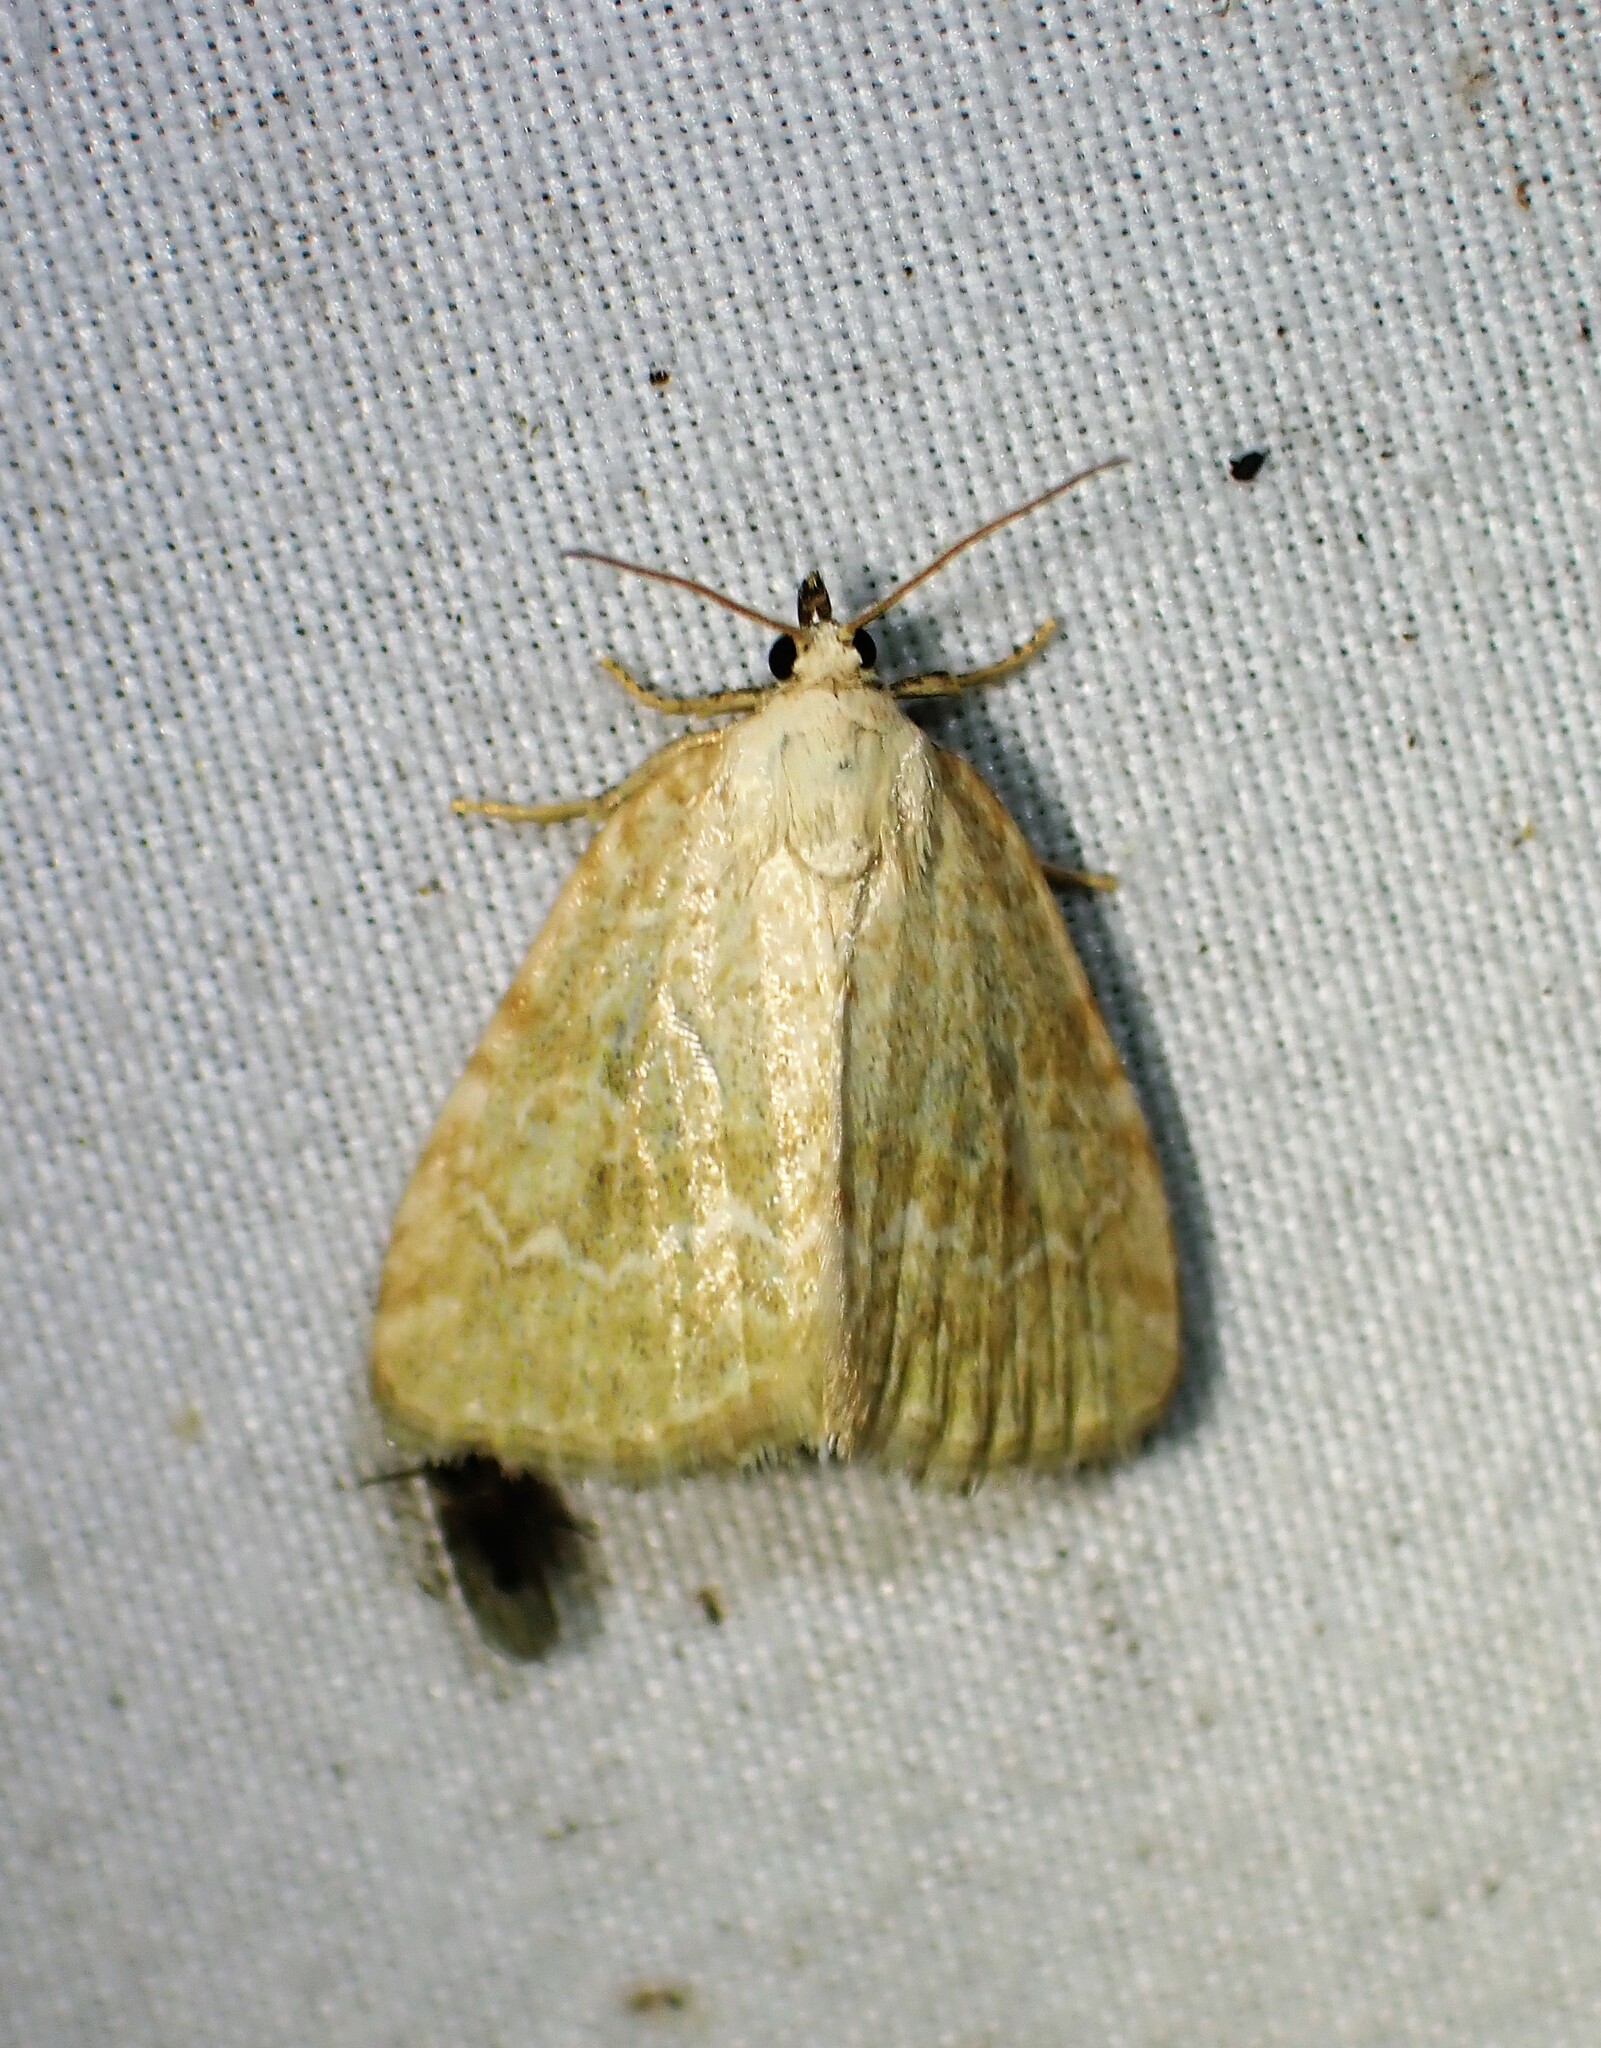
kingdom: Animalia
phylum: Arthropoda
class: Insecta
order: Lepidoptera
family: Noctuidae
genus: Protodeltote
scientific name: Protodeltote albidula
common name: Pale glyph
